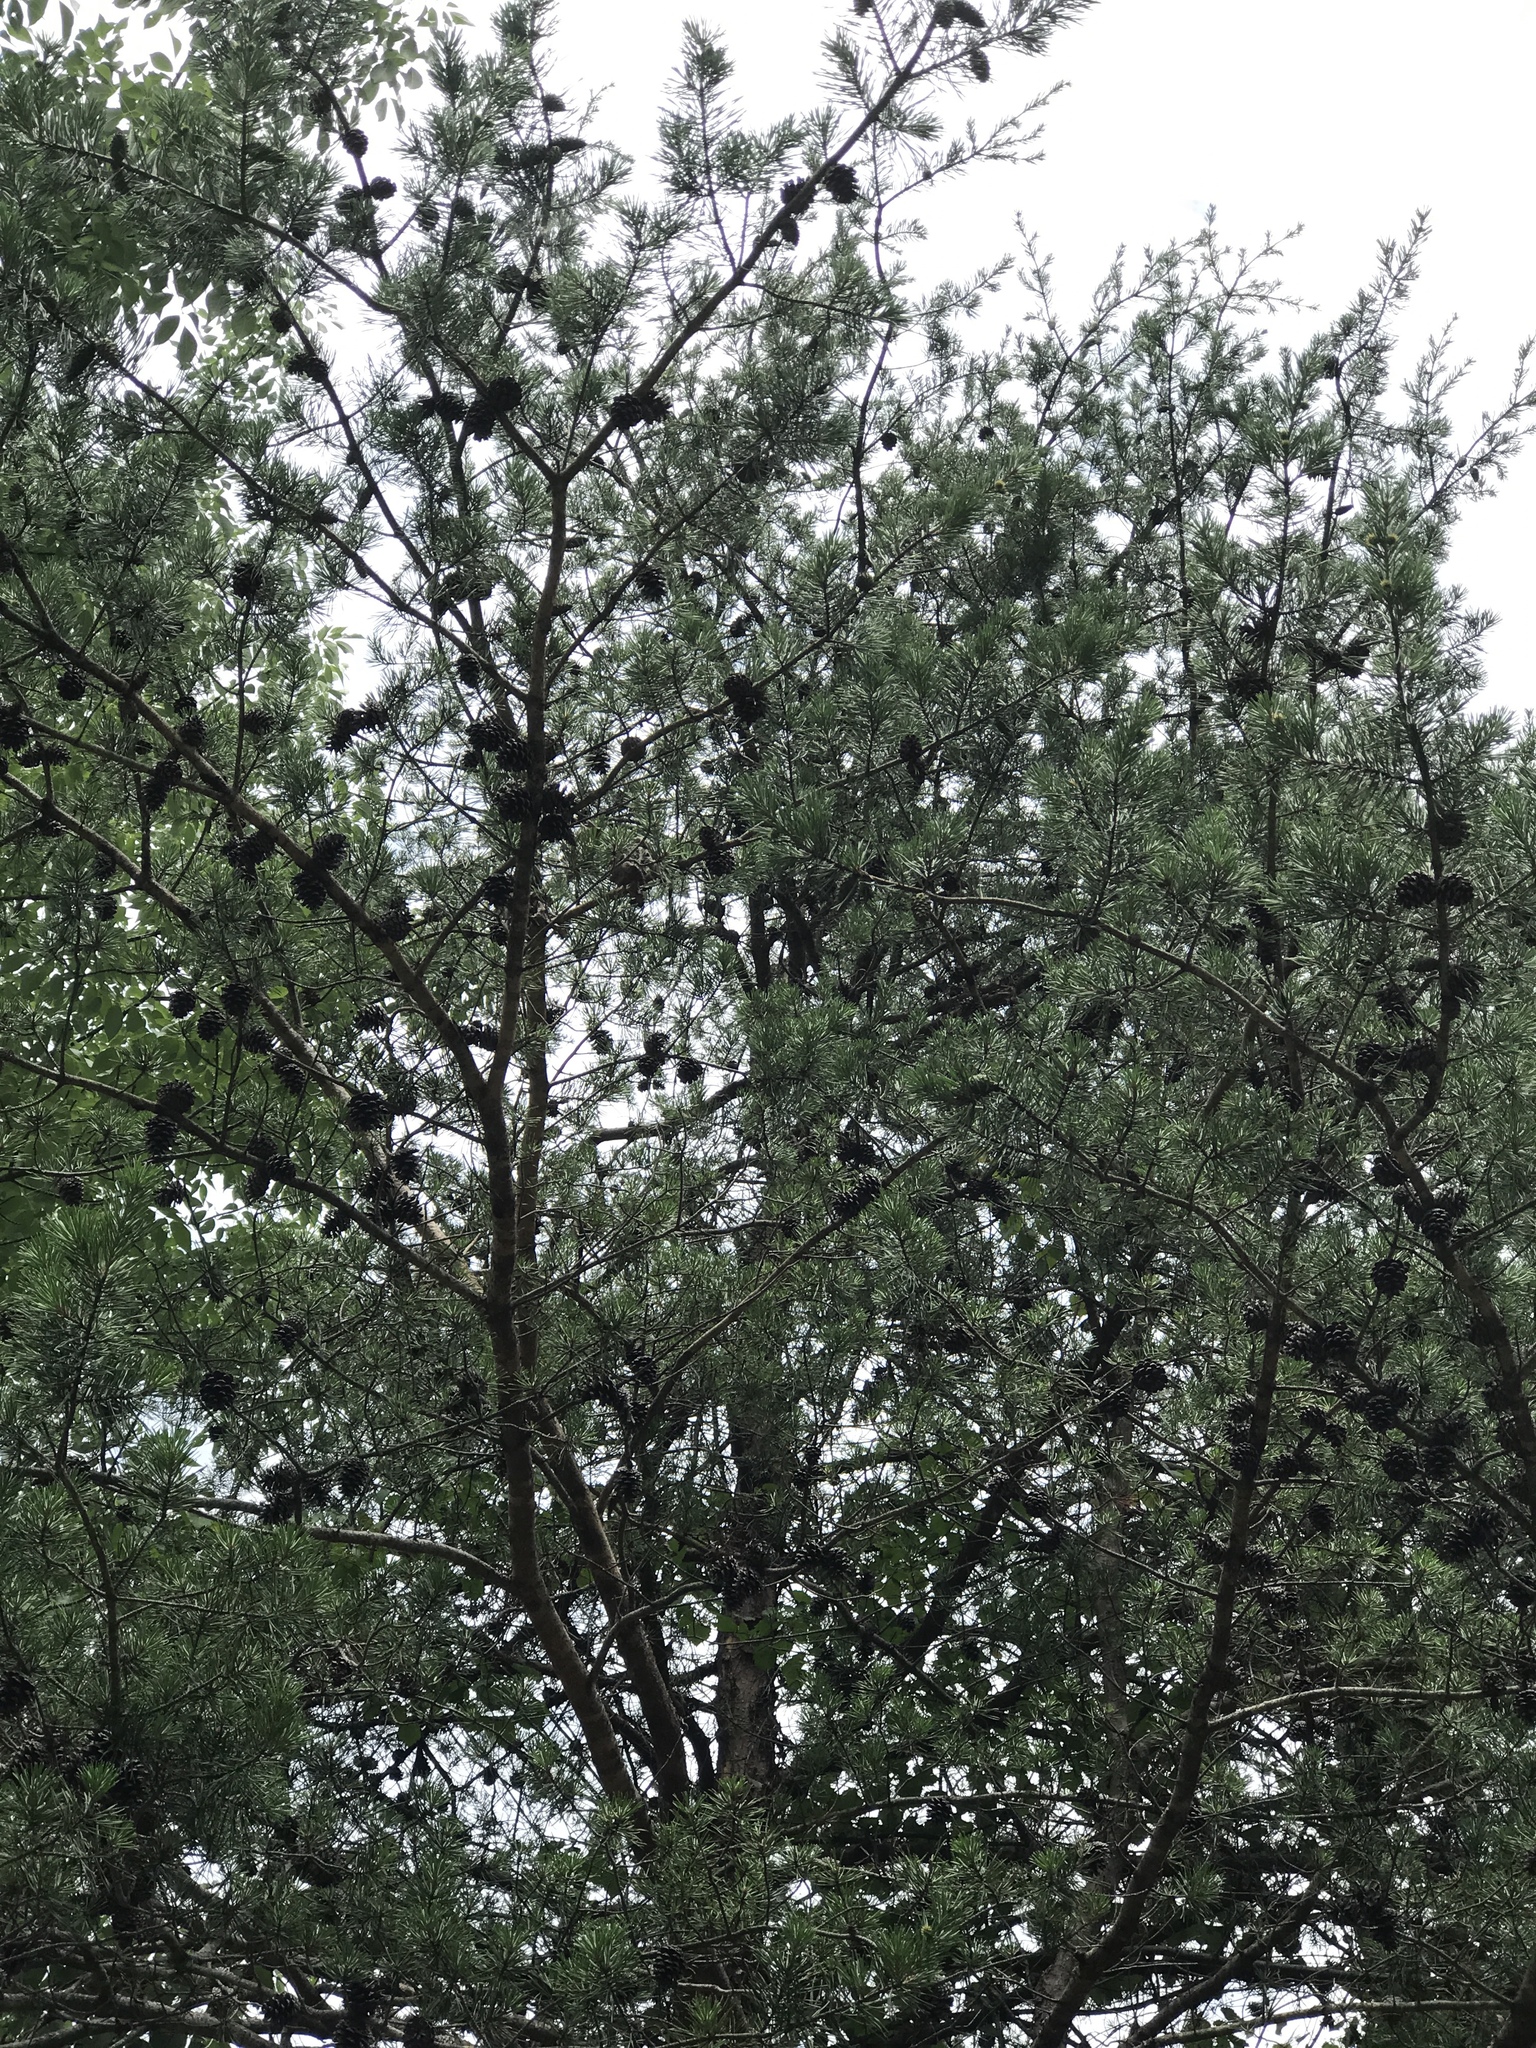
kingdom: Plantae
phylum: Tracheophyta
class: Pinopsida
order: Pinales
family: Pinaceae
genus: Pinus
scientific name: Pinus virginiana
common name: Scrub pine
